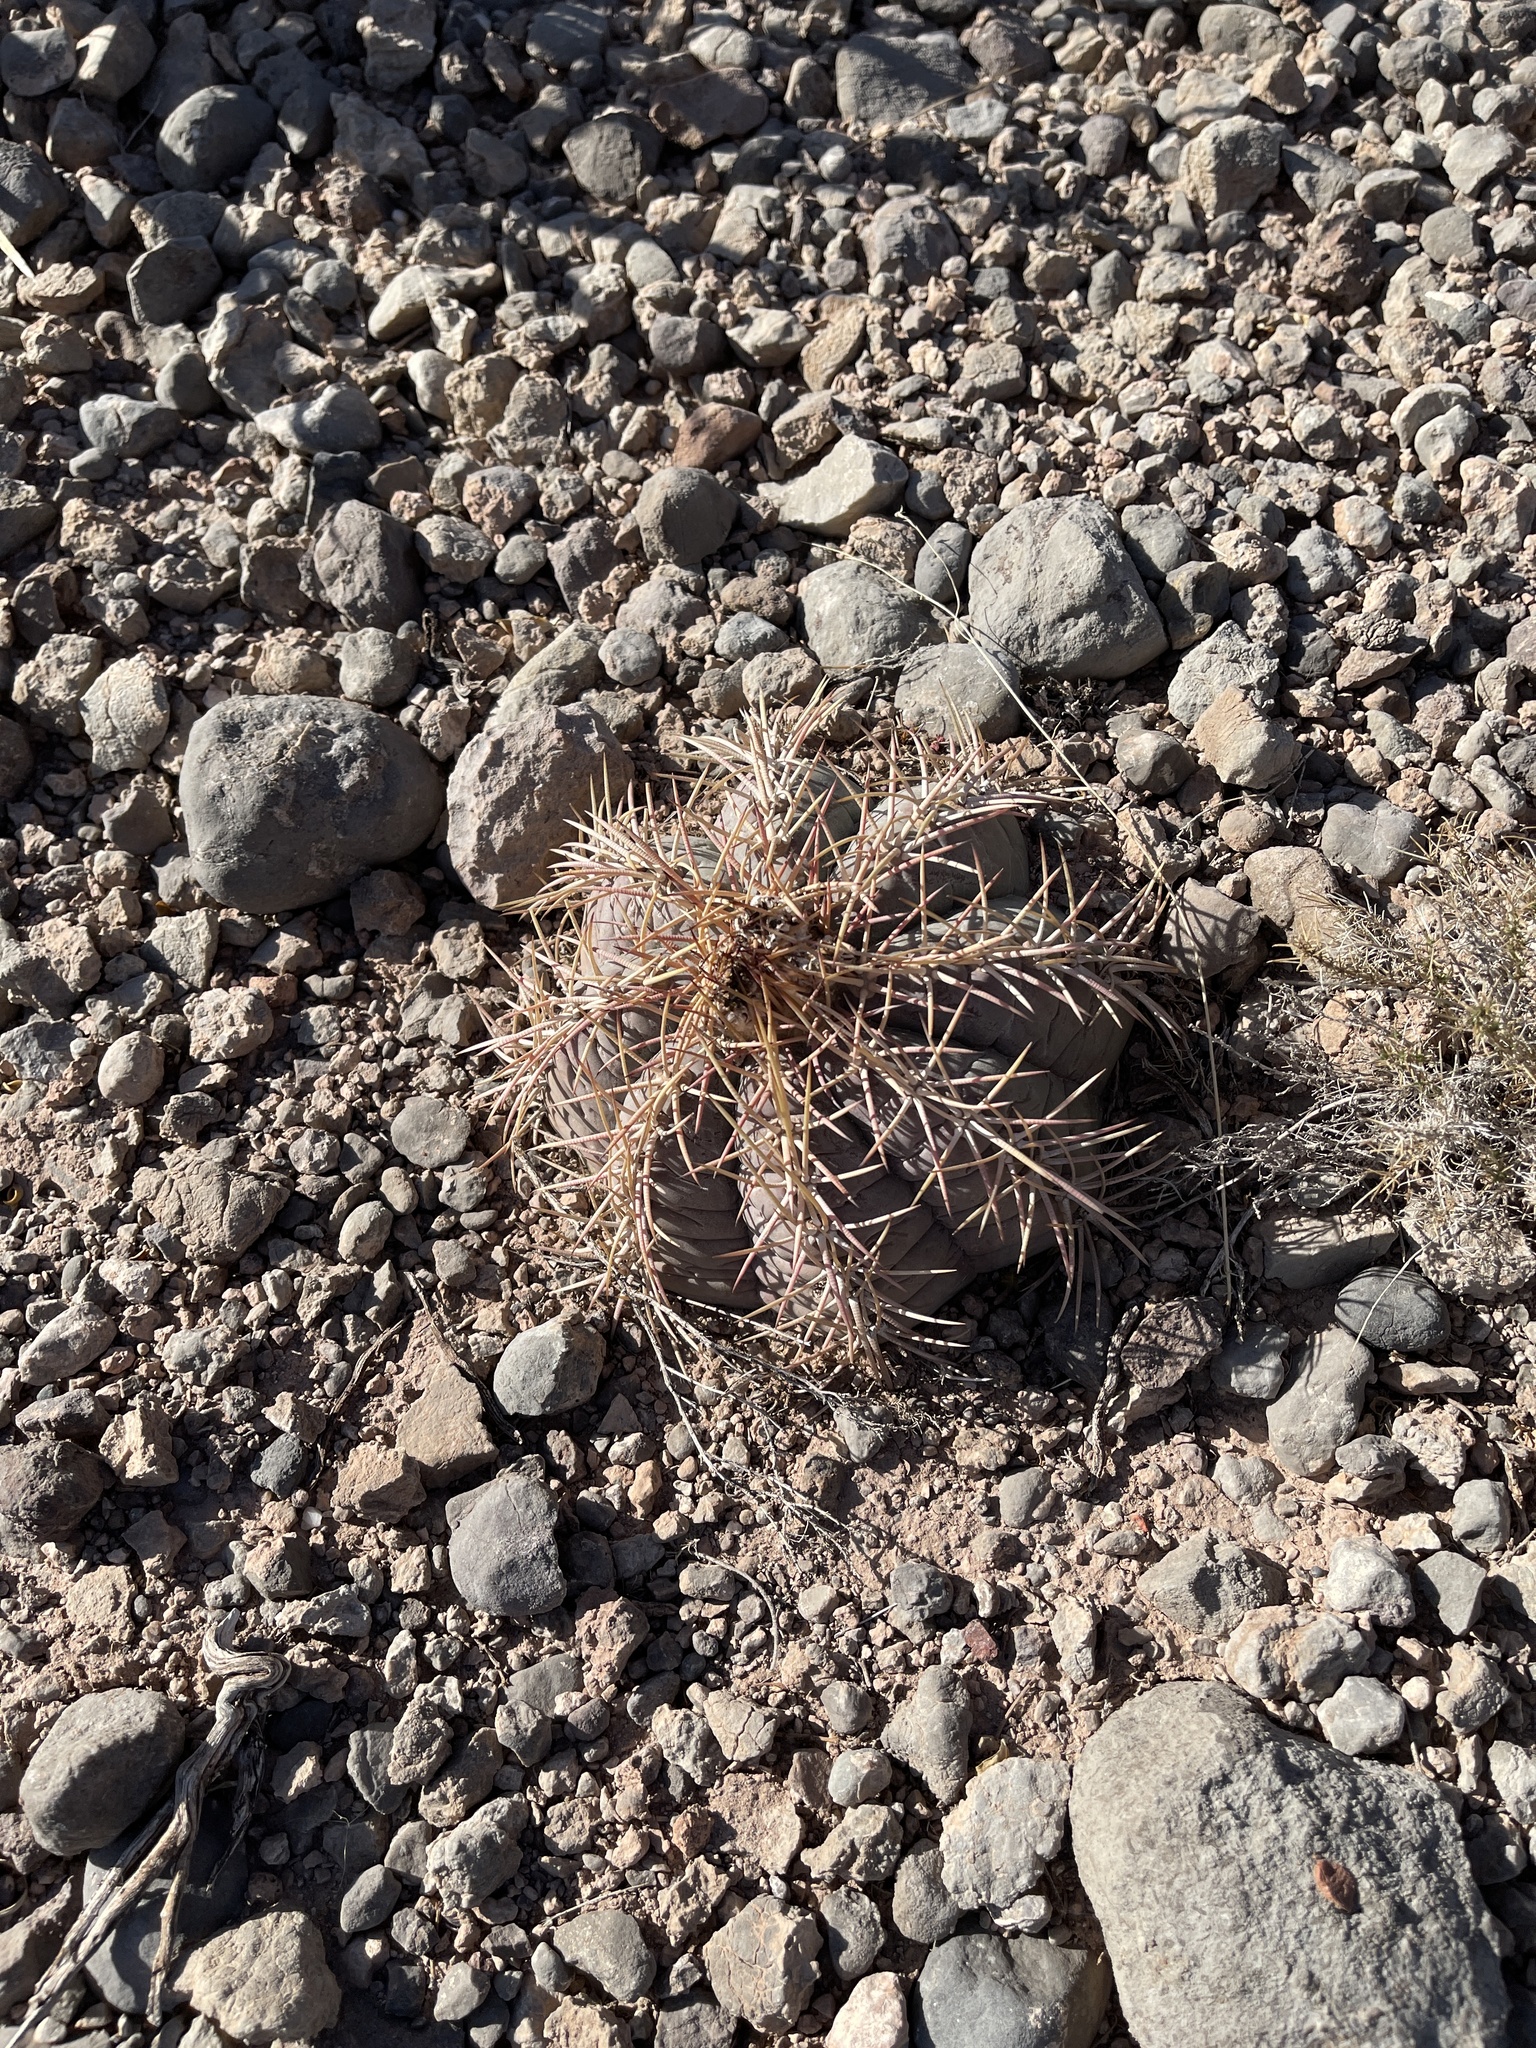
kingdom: Plantae
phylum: Tracheophyta
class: Magnoliopsida
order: Caryophyllales
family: Cactaceae
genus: Echinocactus
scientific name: Echinocactus horizonthalonius
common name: Devilshead
